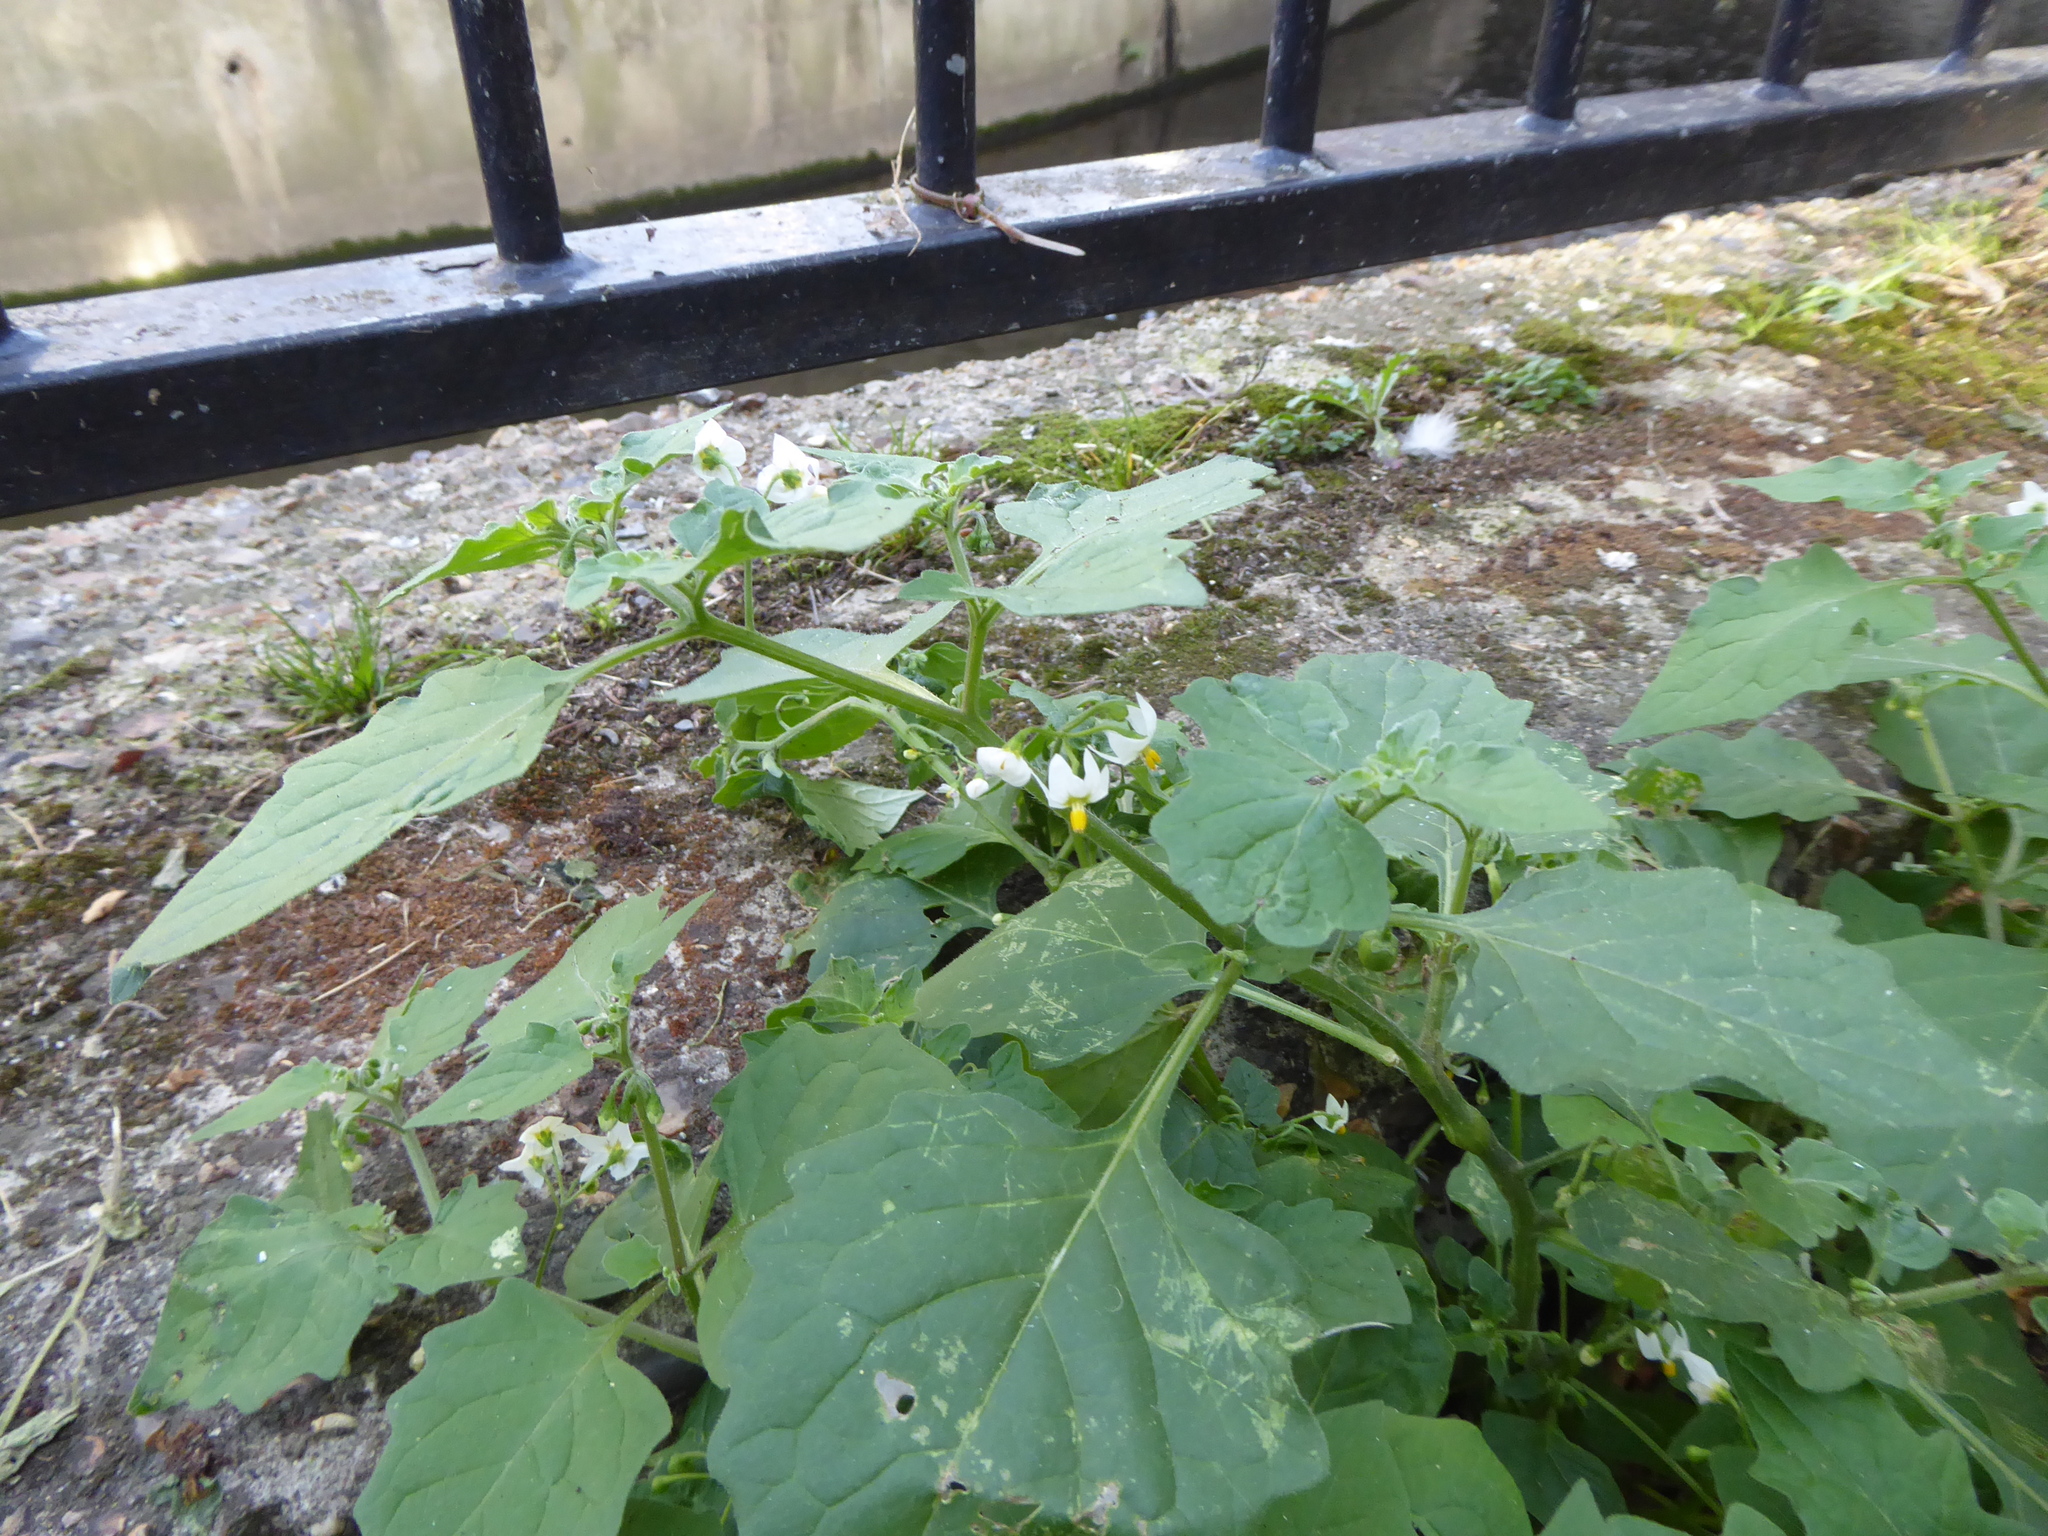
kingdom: Plantae
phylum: Tracheophyta
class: Magnoliopsida
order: Solanales
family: Solanaceae
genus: Solanum
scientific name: Solanum nigrum
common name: Black nightshade
